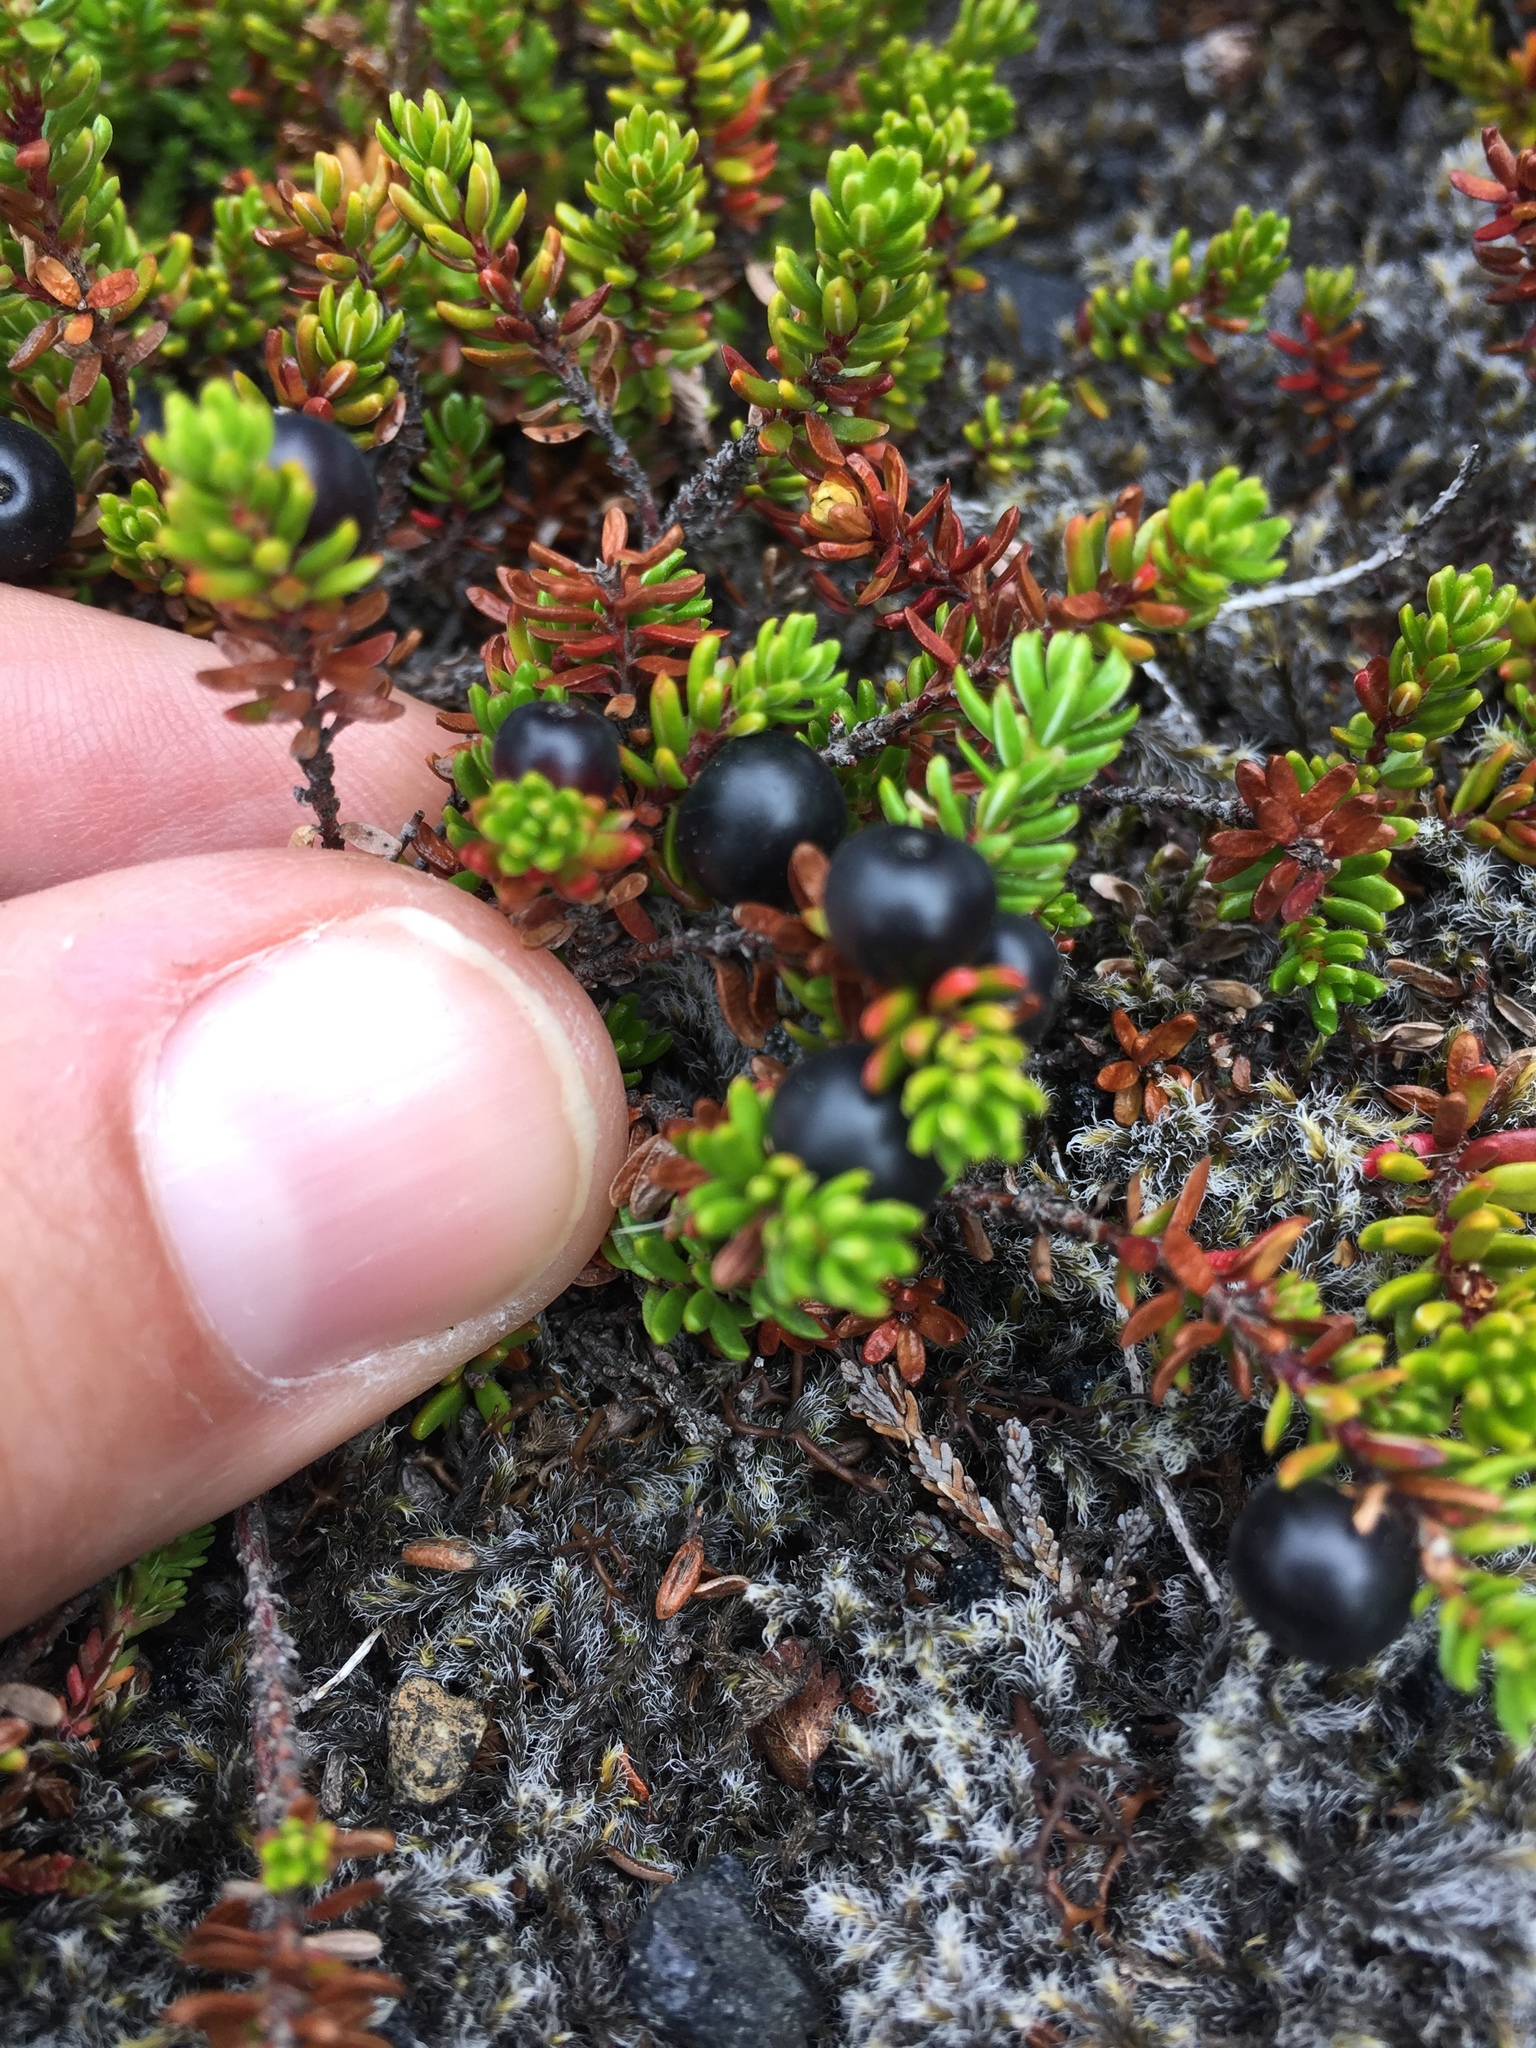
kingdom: Plantae
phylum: Tracheophyta
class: Magnoliopsida
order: Ericales
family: Ericaceae
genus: Empetrum
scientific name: Empetrum nigrum
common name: Black crowberry
